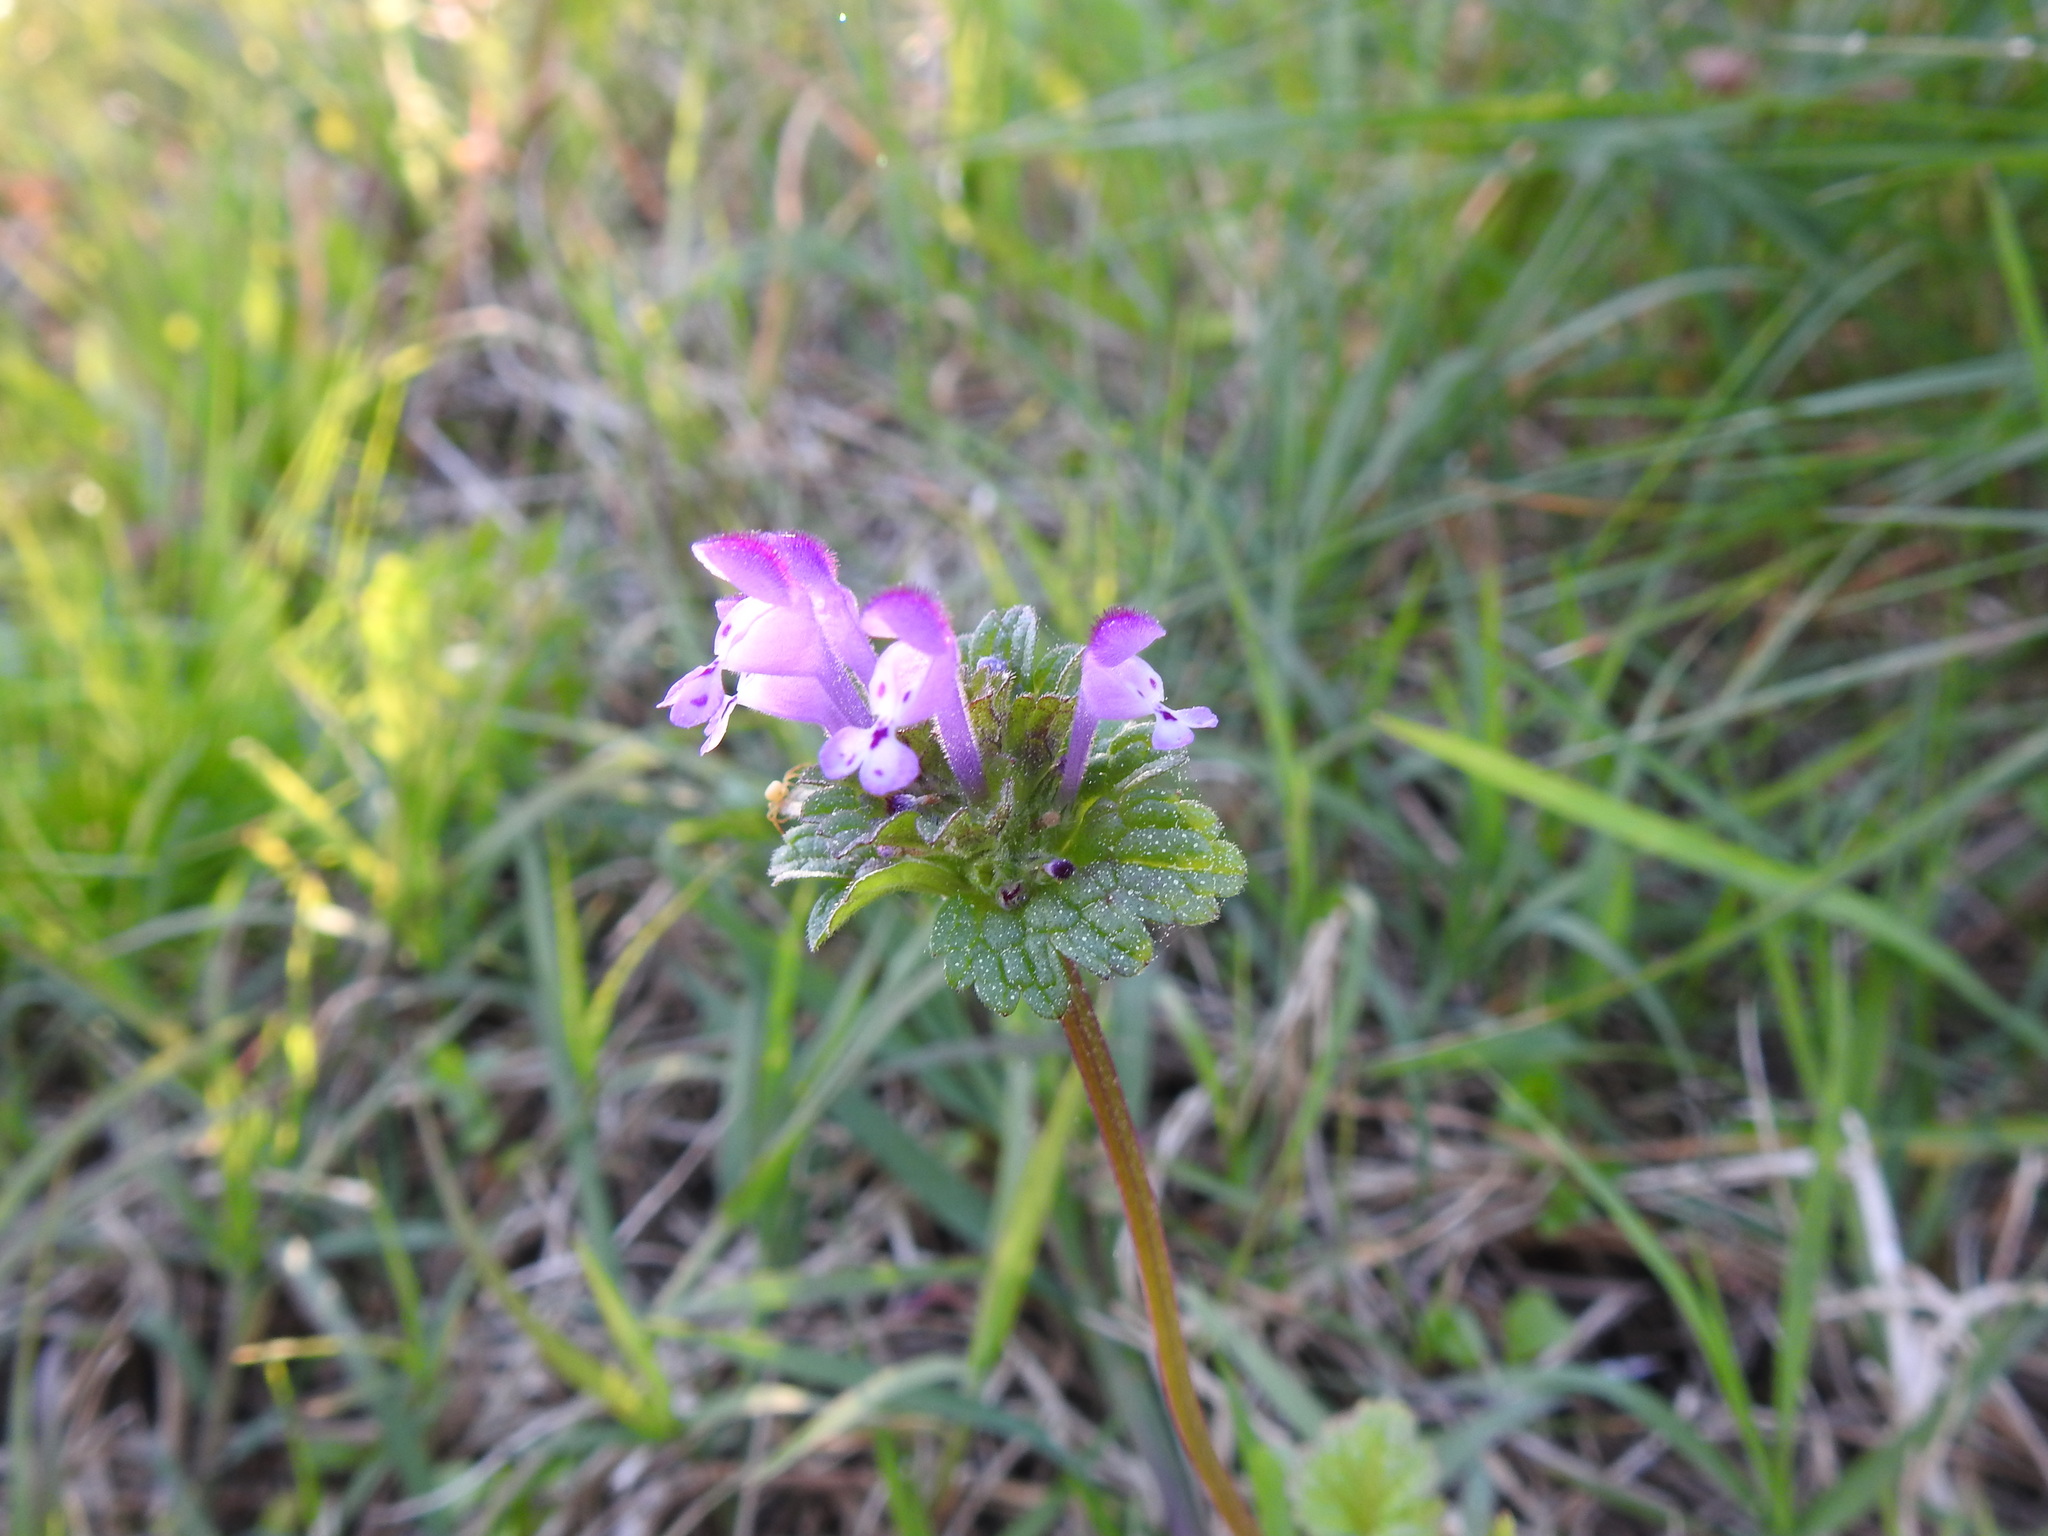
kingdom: Plantae
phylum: Tracheophyta
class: Magnoliopsida
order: Lamiales
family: Lamiaceae
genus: Lamium
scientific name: Lamium amplexicaule
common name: Henbit dead-nettle
